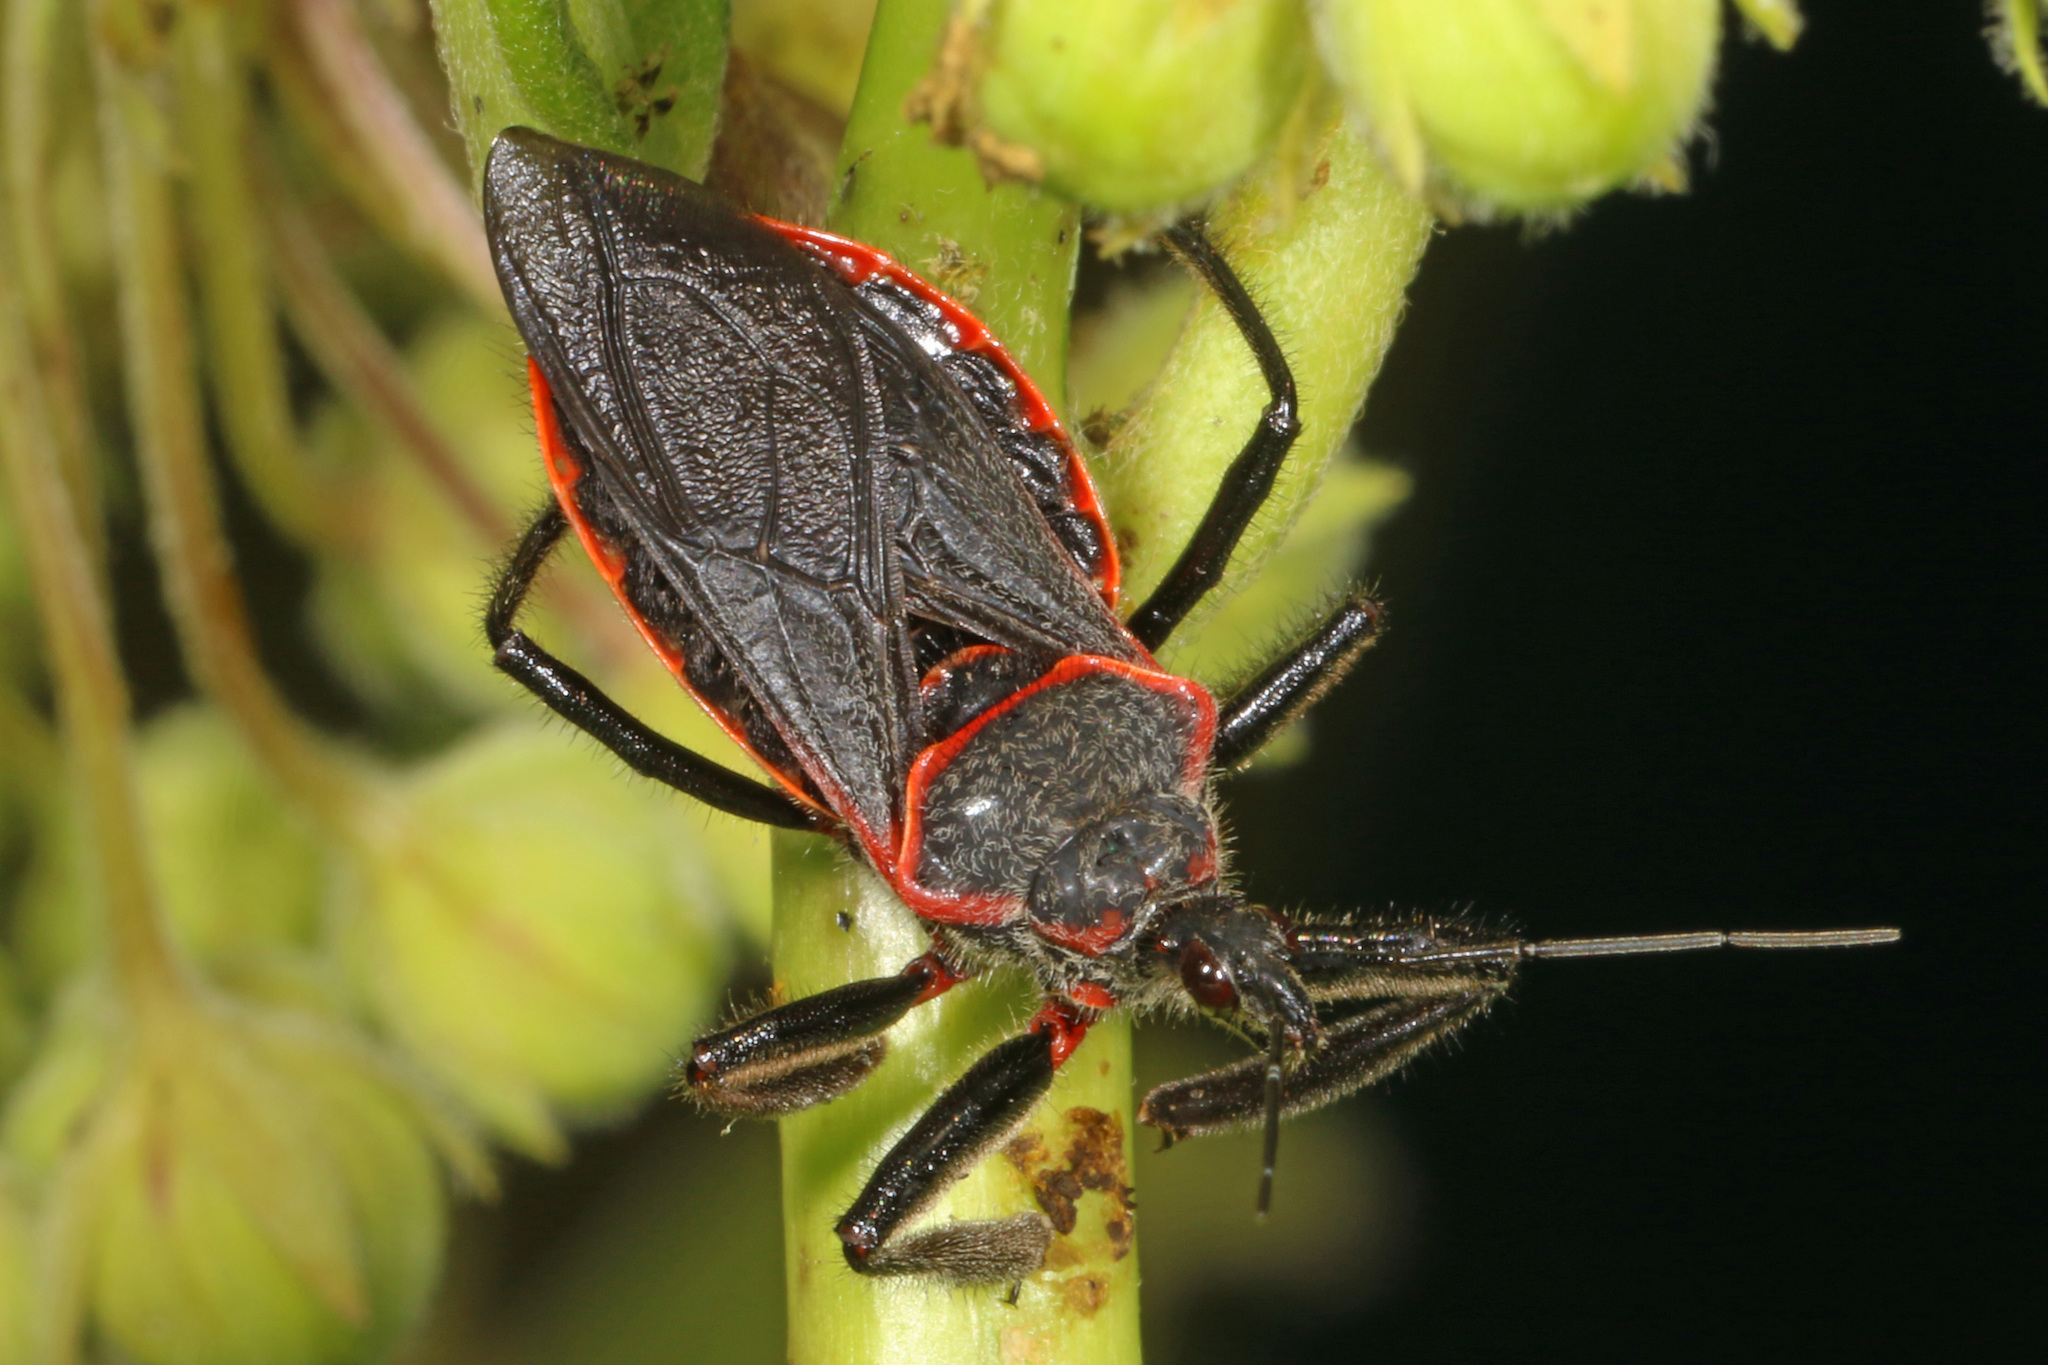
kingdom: Animalia
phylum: Arthropoda
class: Insecta
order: Hemiptera
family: Reduviidae
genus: Apiomerus
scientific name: Apiomerus crassipes
